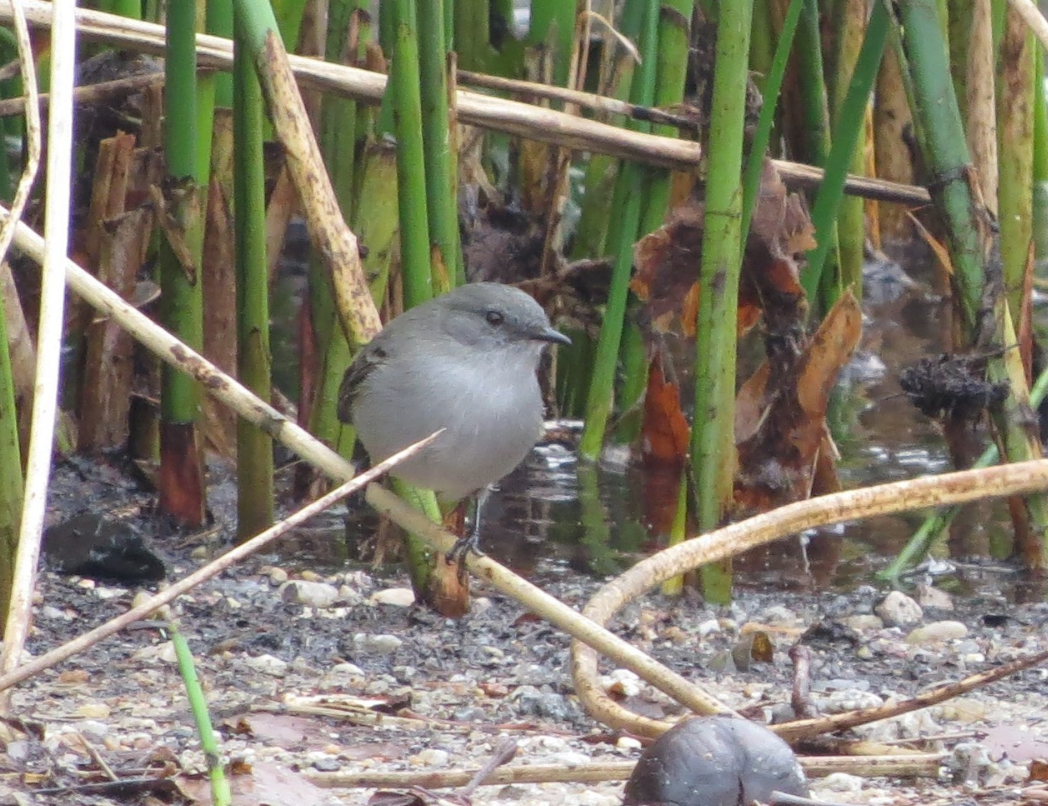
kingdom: Animalia
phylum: Chordata
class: Aves
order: Passeriformes
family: Tyrannidae
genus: Serpophaga
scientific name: Serpophaga nigricans
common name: Sooty tyrannulet
